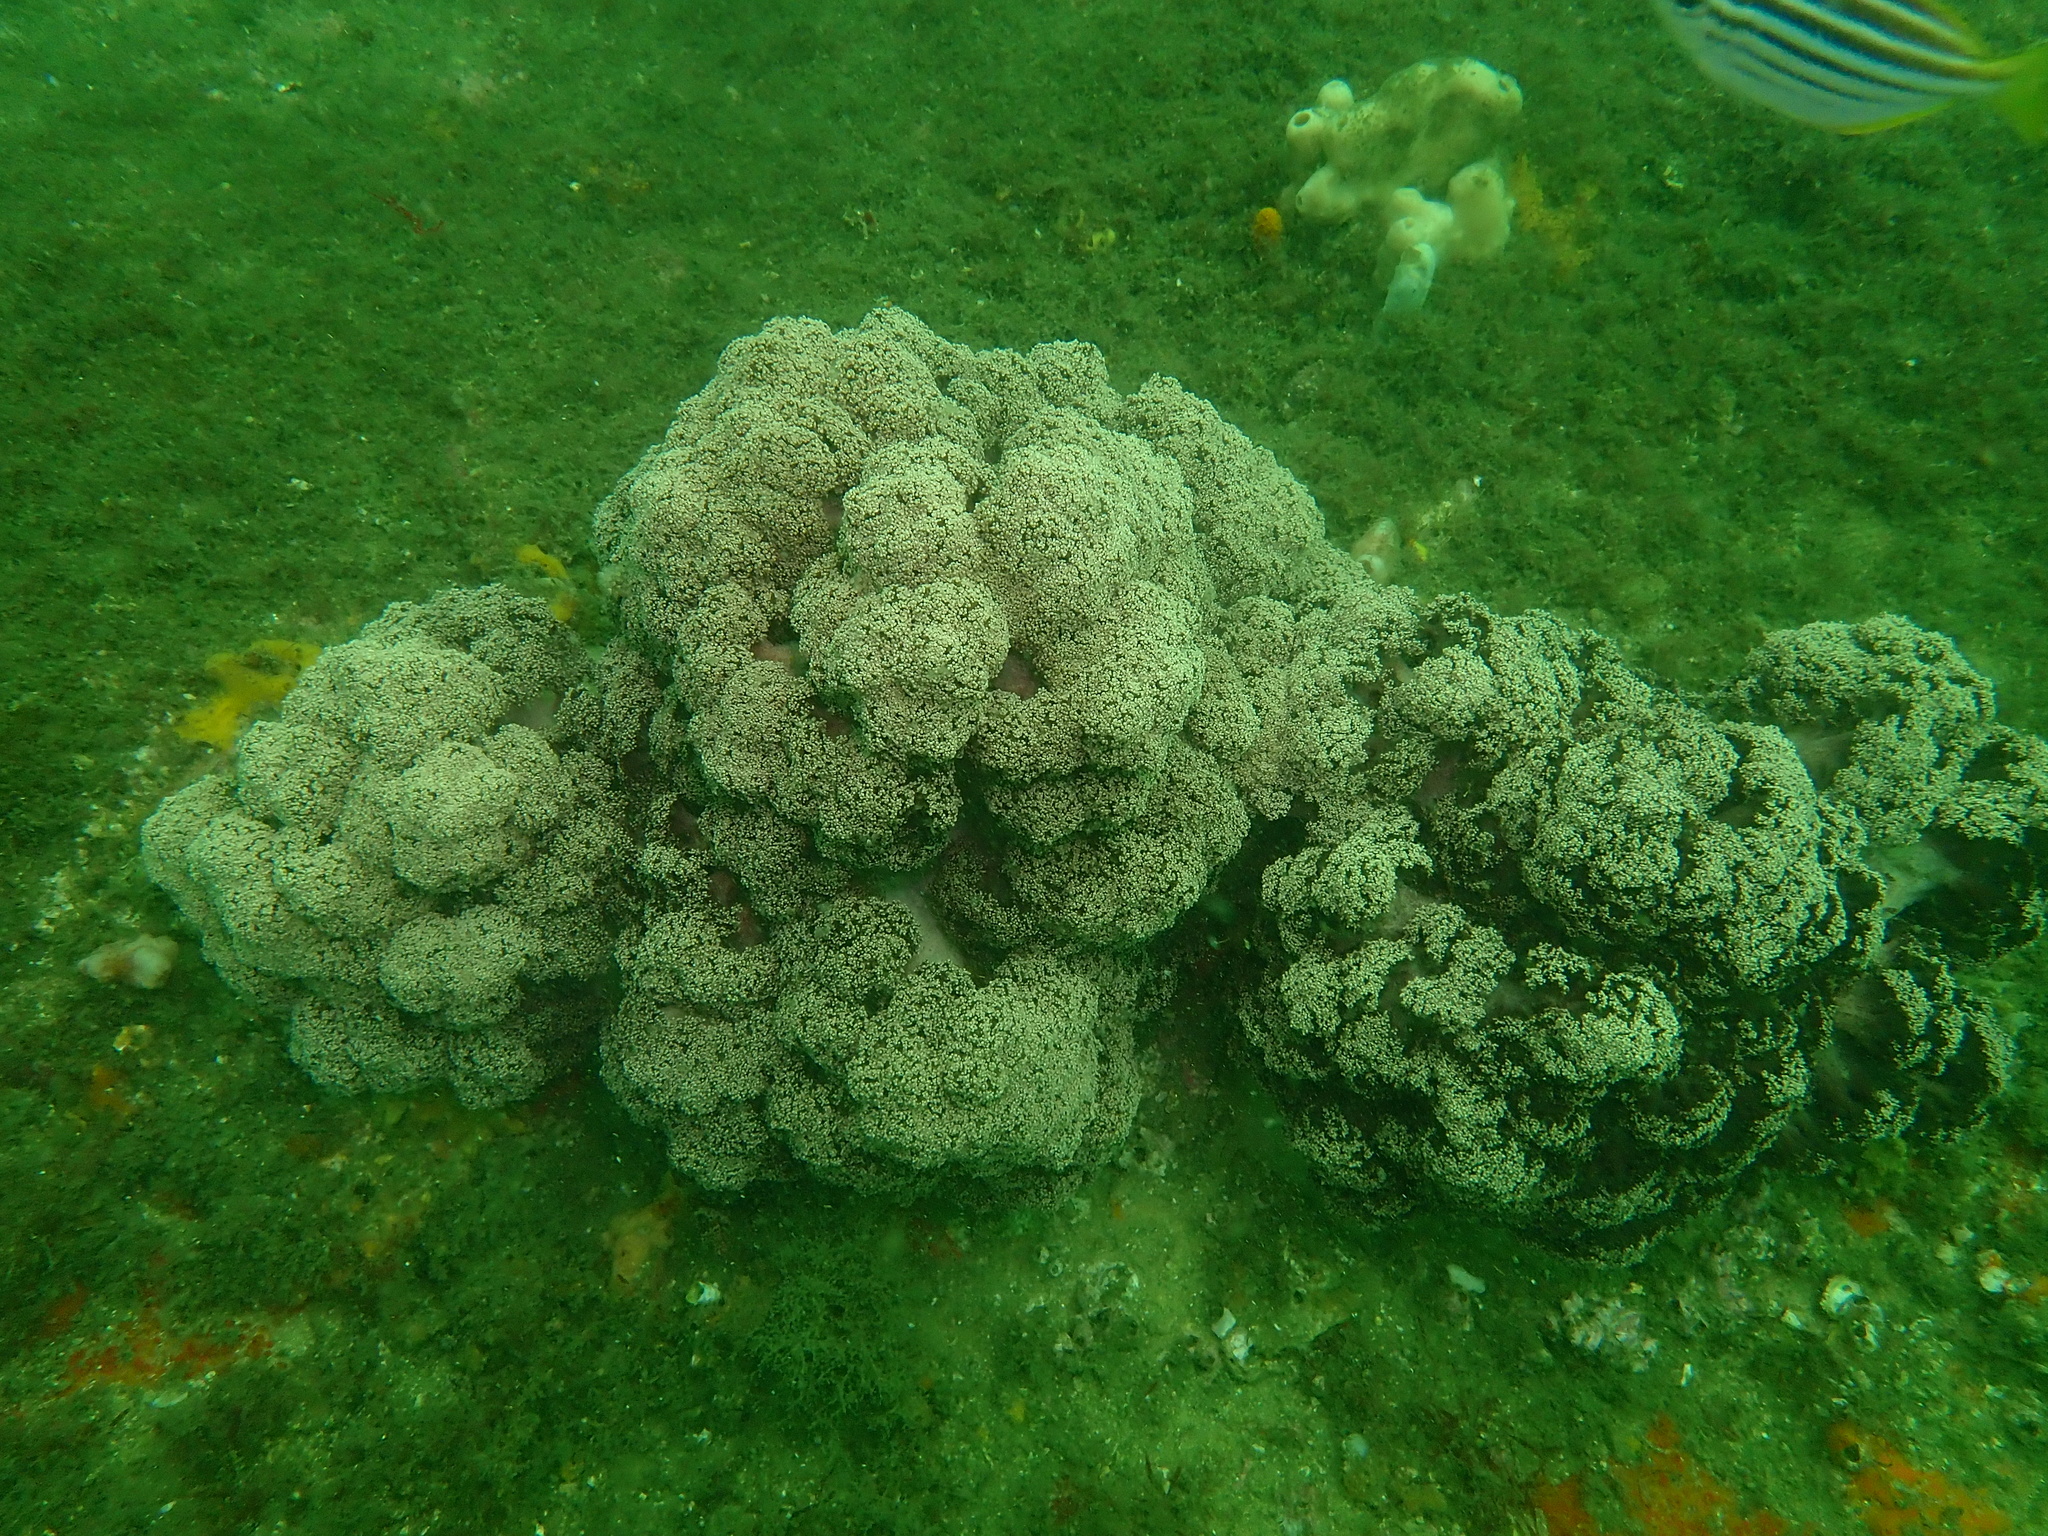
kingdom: Animalia
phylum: Cnidaria
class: Anthozoa
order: Malacalcyonacea
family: Nephtheidae
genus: Dendronephthya
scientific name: Dendronephthya australis
